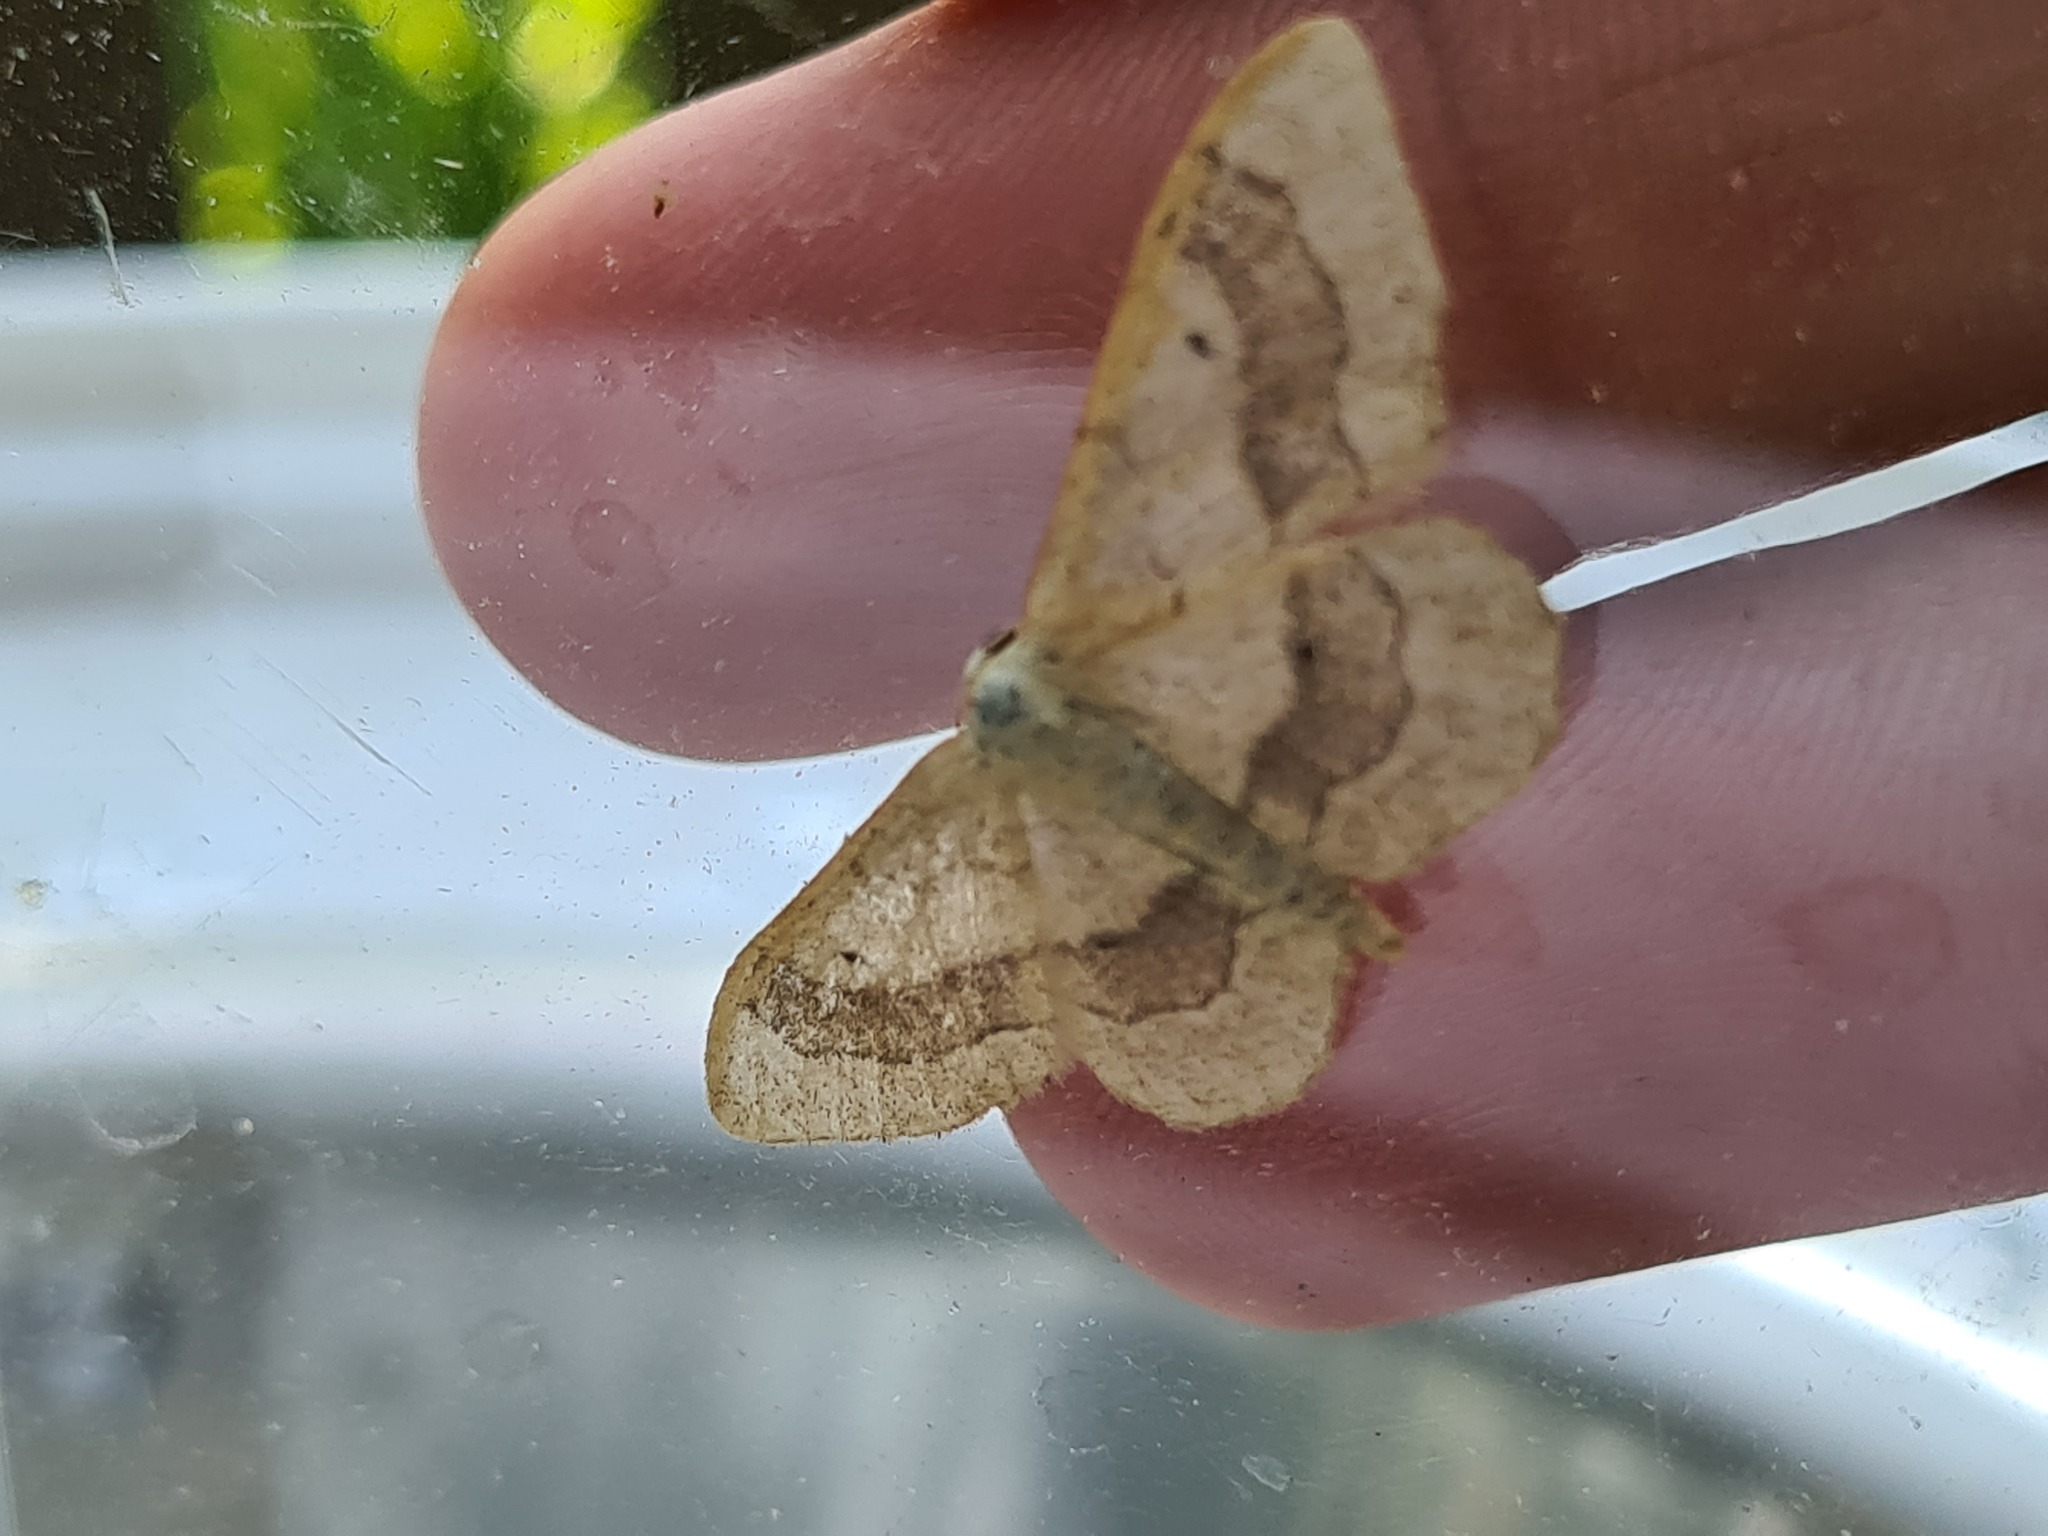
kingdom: Animalia
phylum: Arthropoda
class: Insecta
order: Lepidoptera
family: Geometridae
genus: Idaea
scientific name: Idaea aversata
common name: Riband wave
